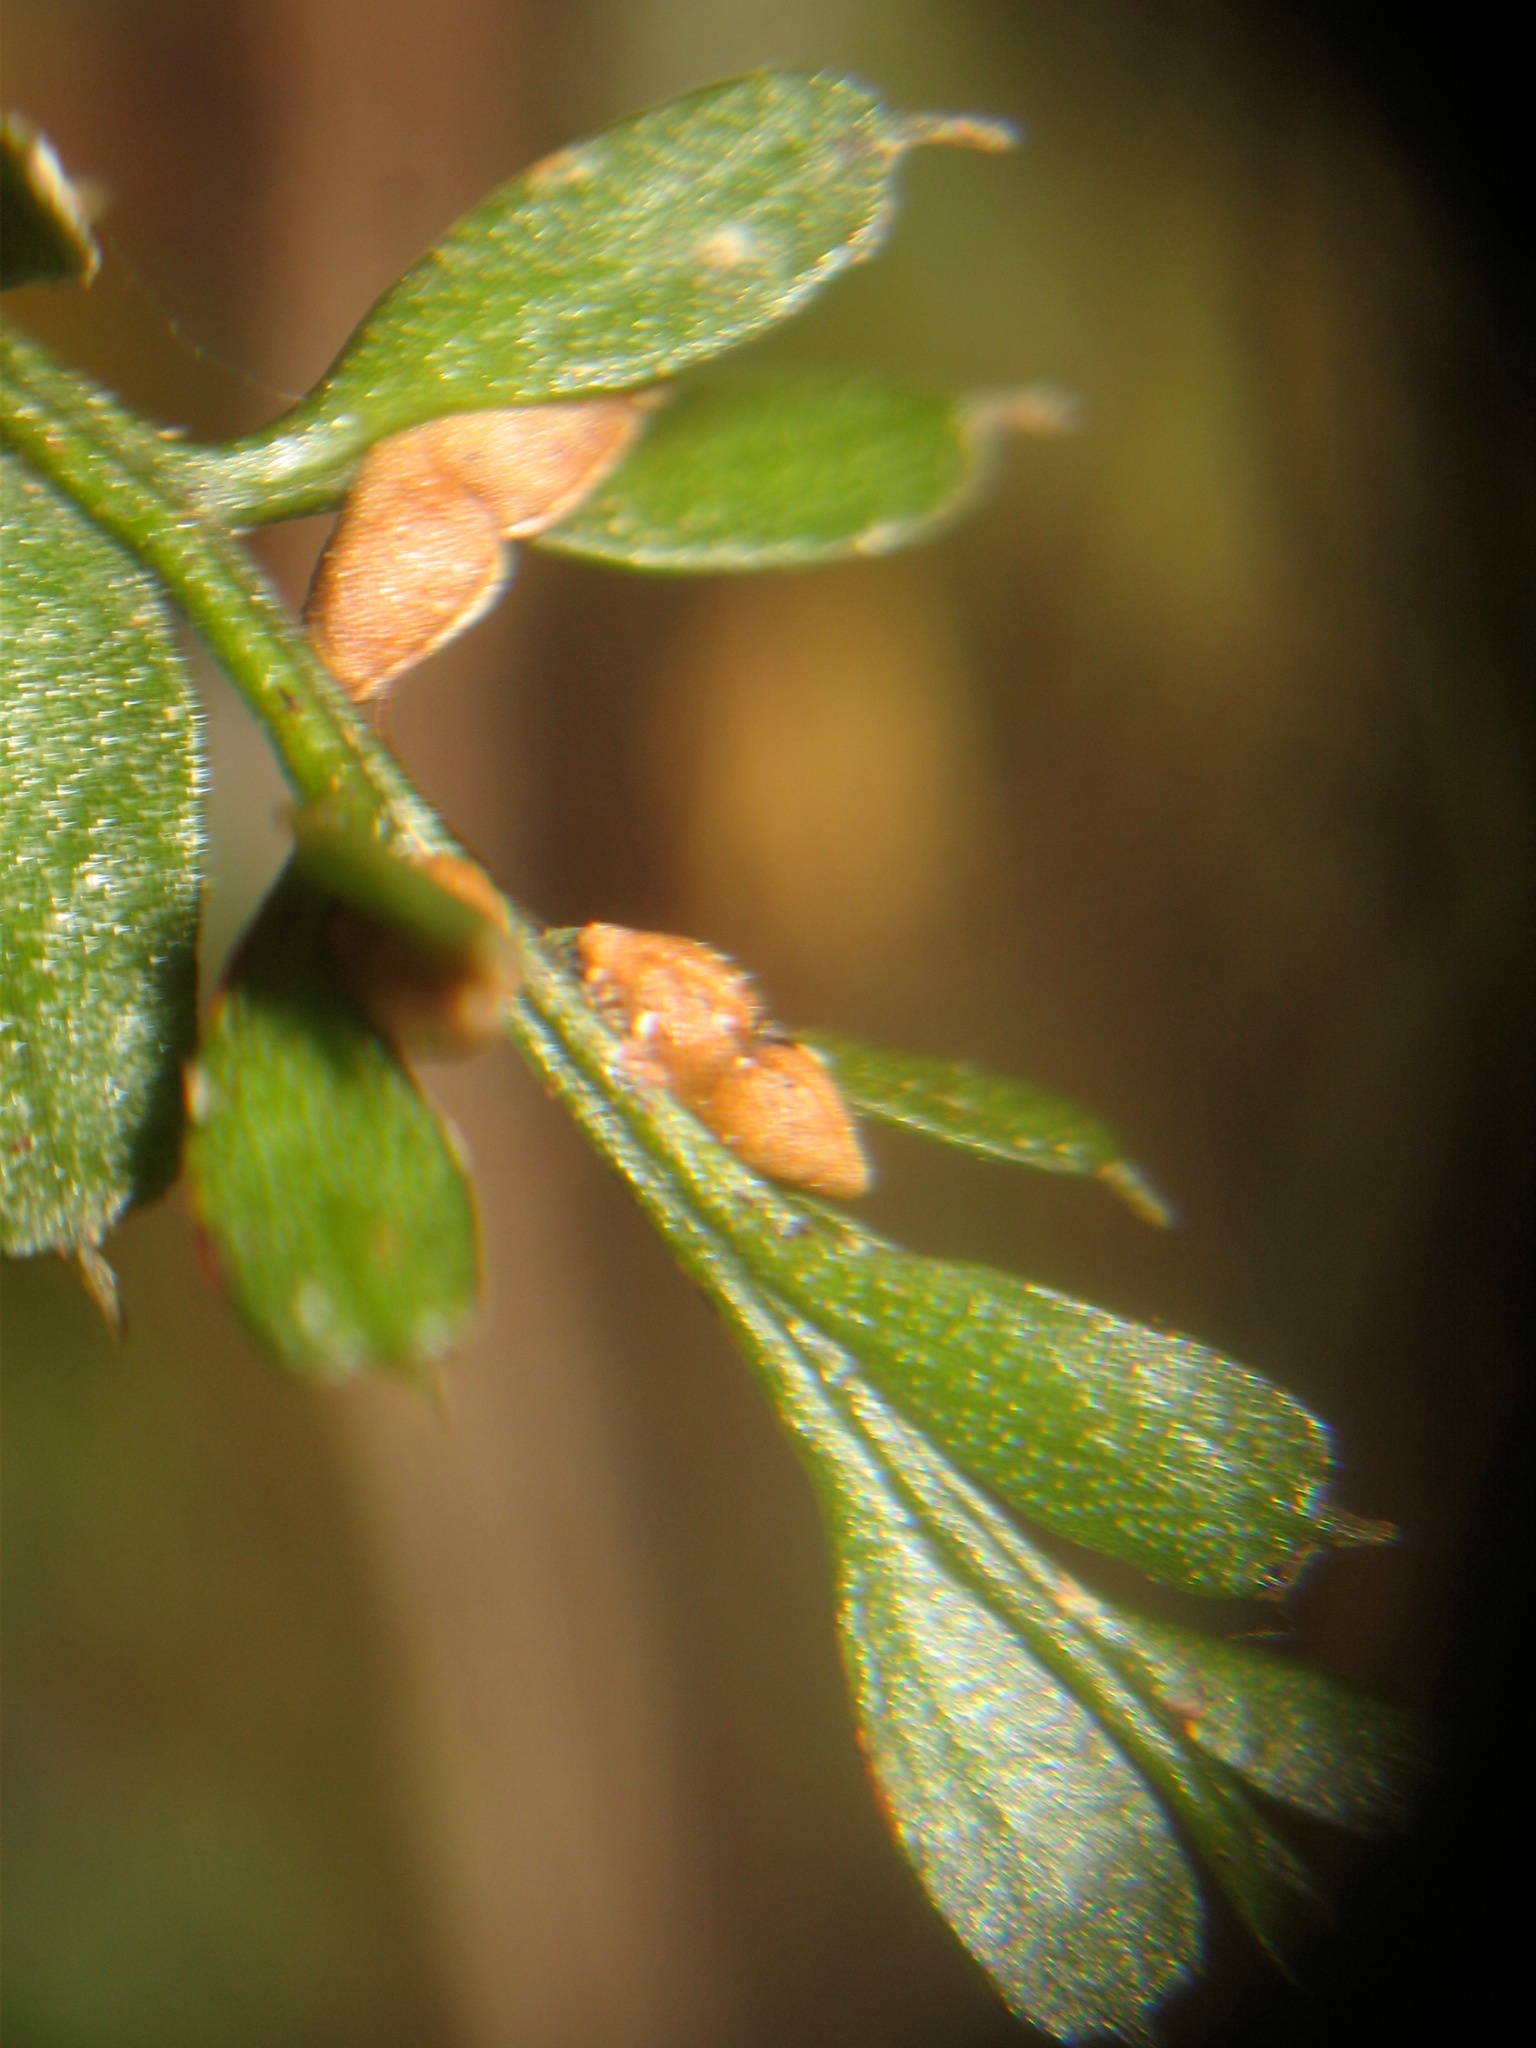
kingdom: Plantae
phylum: Tracheophyta
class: Polypodiopsida
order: Psilotales
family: Psilotaceae
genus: Tmesipteris
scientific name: Tmesipteris tannensis
